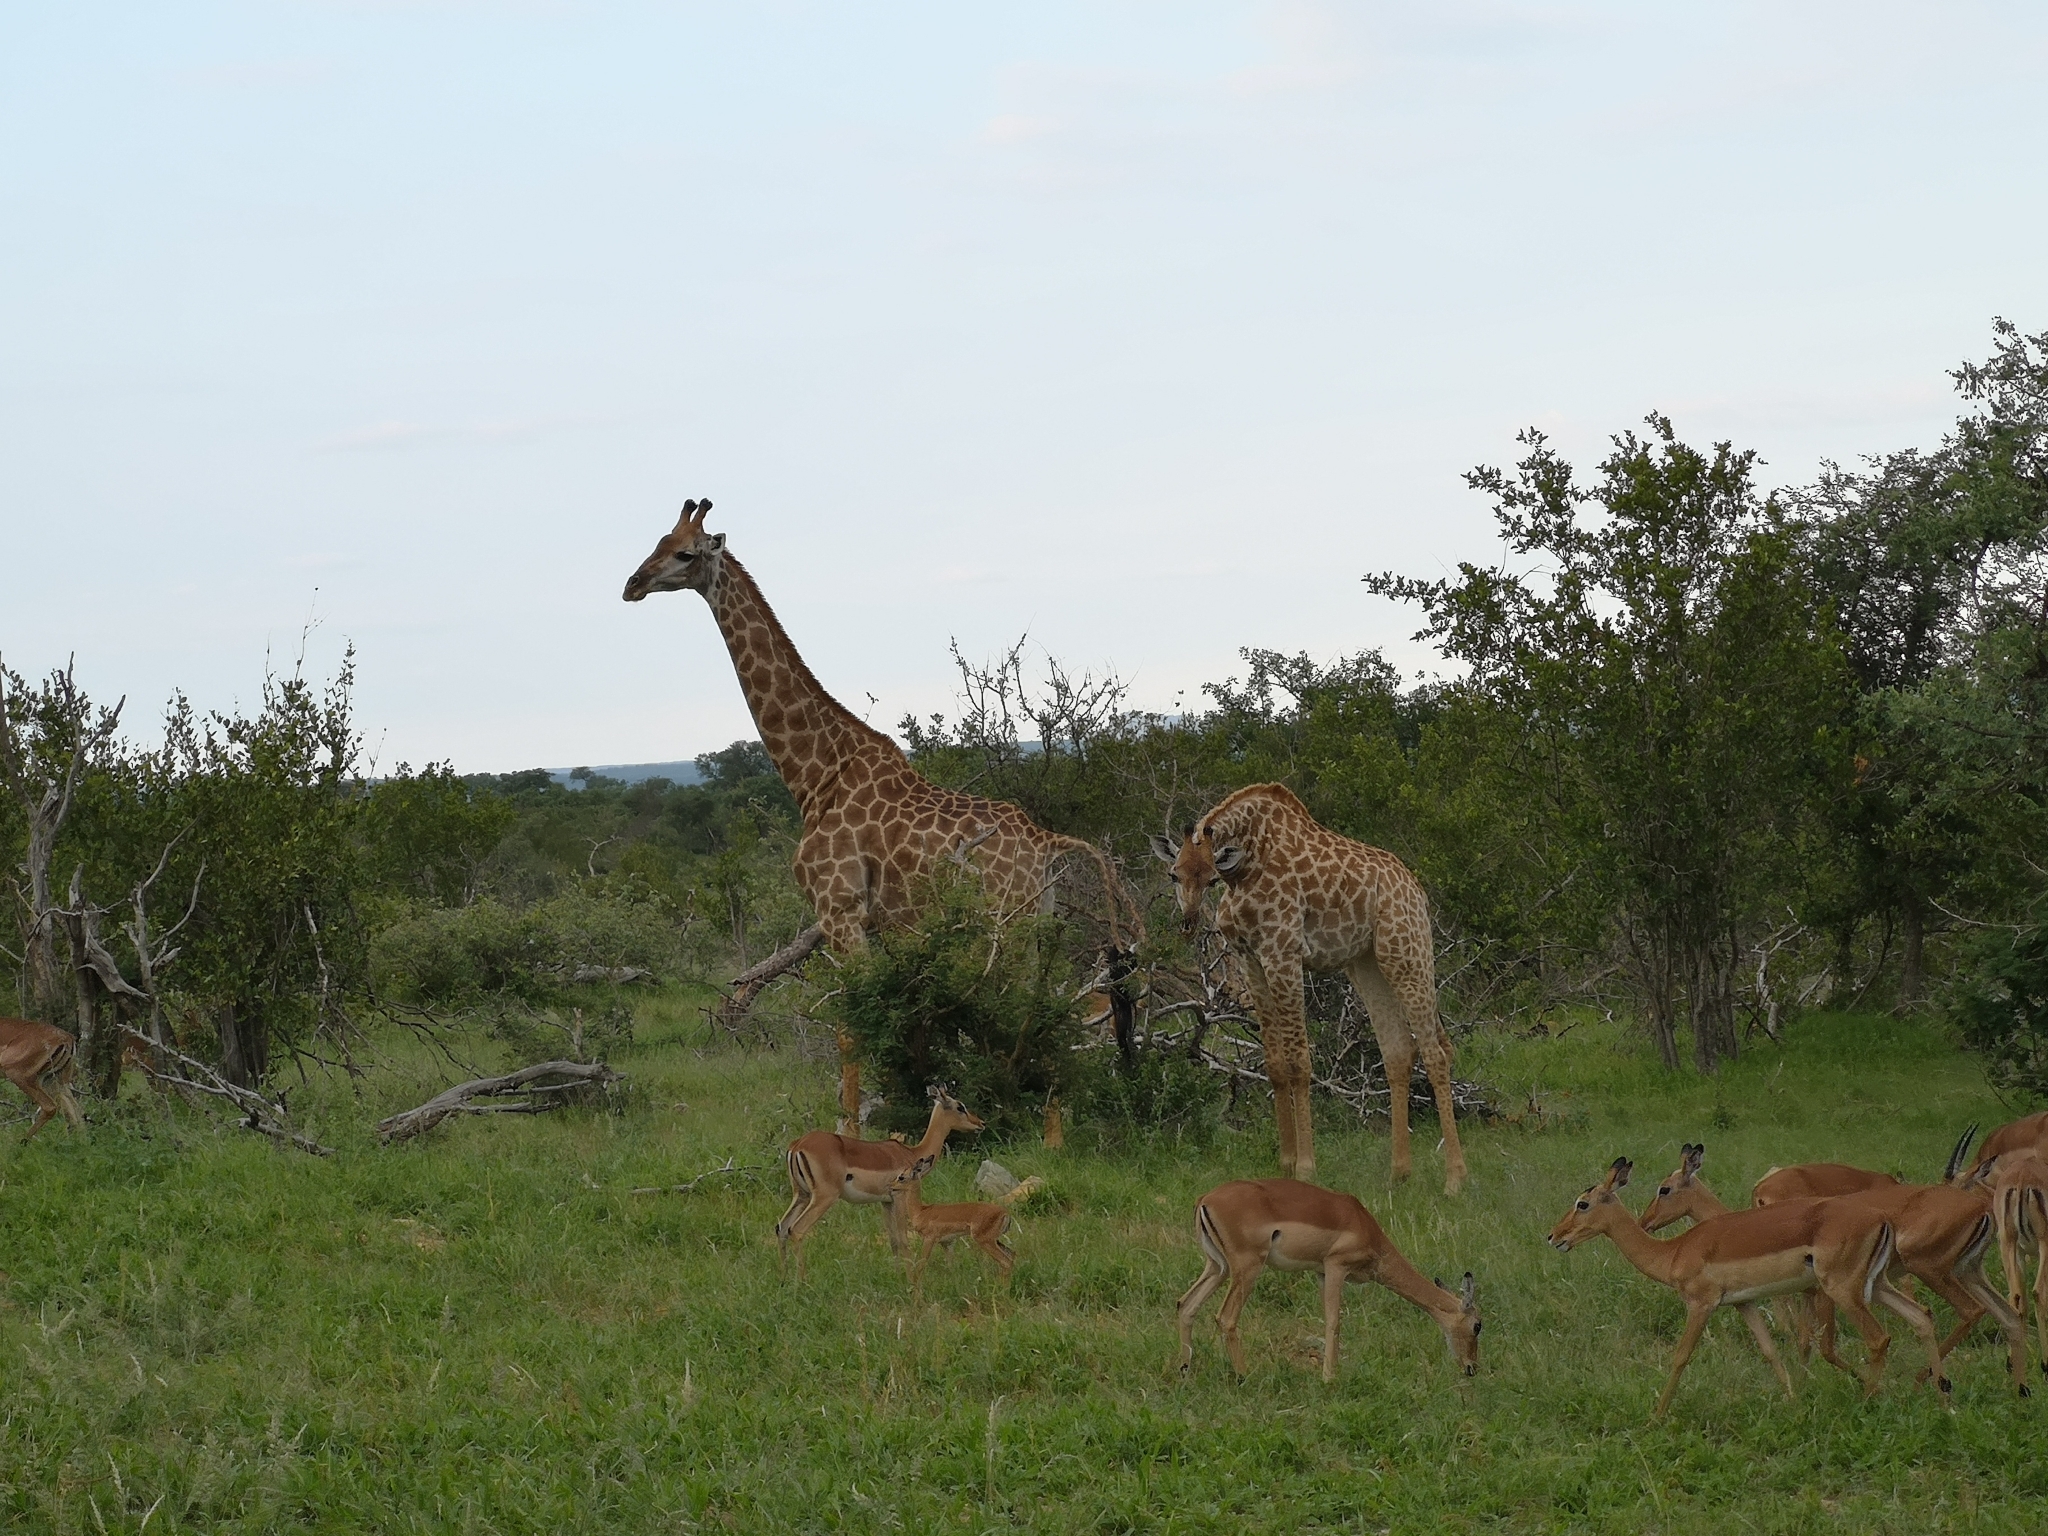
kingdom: Animalia
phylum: Chordata
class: Mammalia
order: Artiodactyla
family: Giraffidae
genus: Giraffa
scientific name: Giraffa giraffa
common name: Southern giraffe
